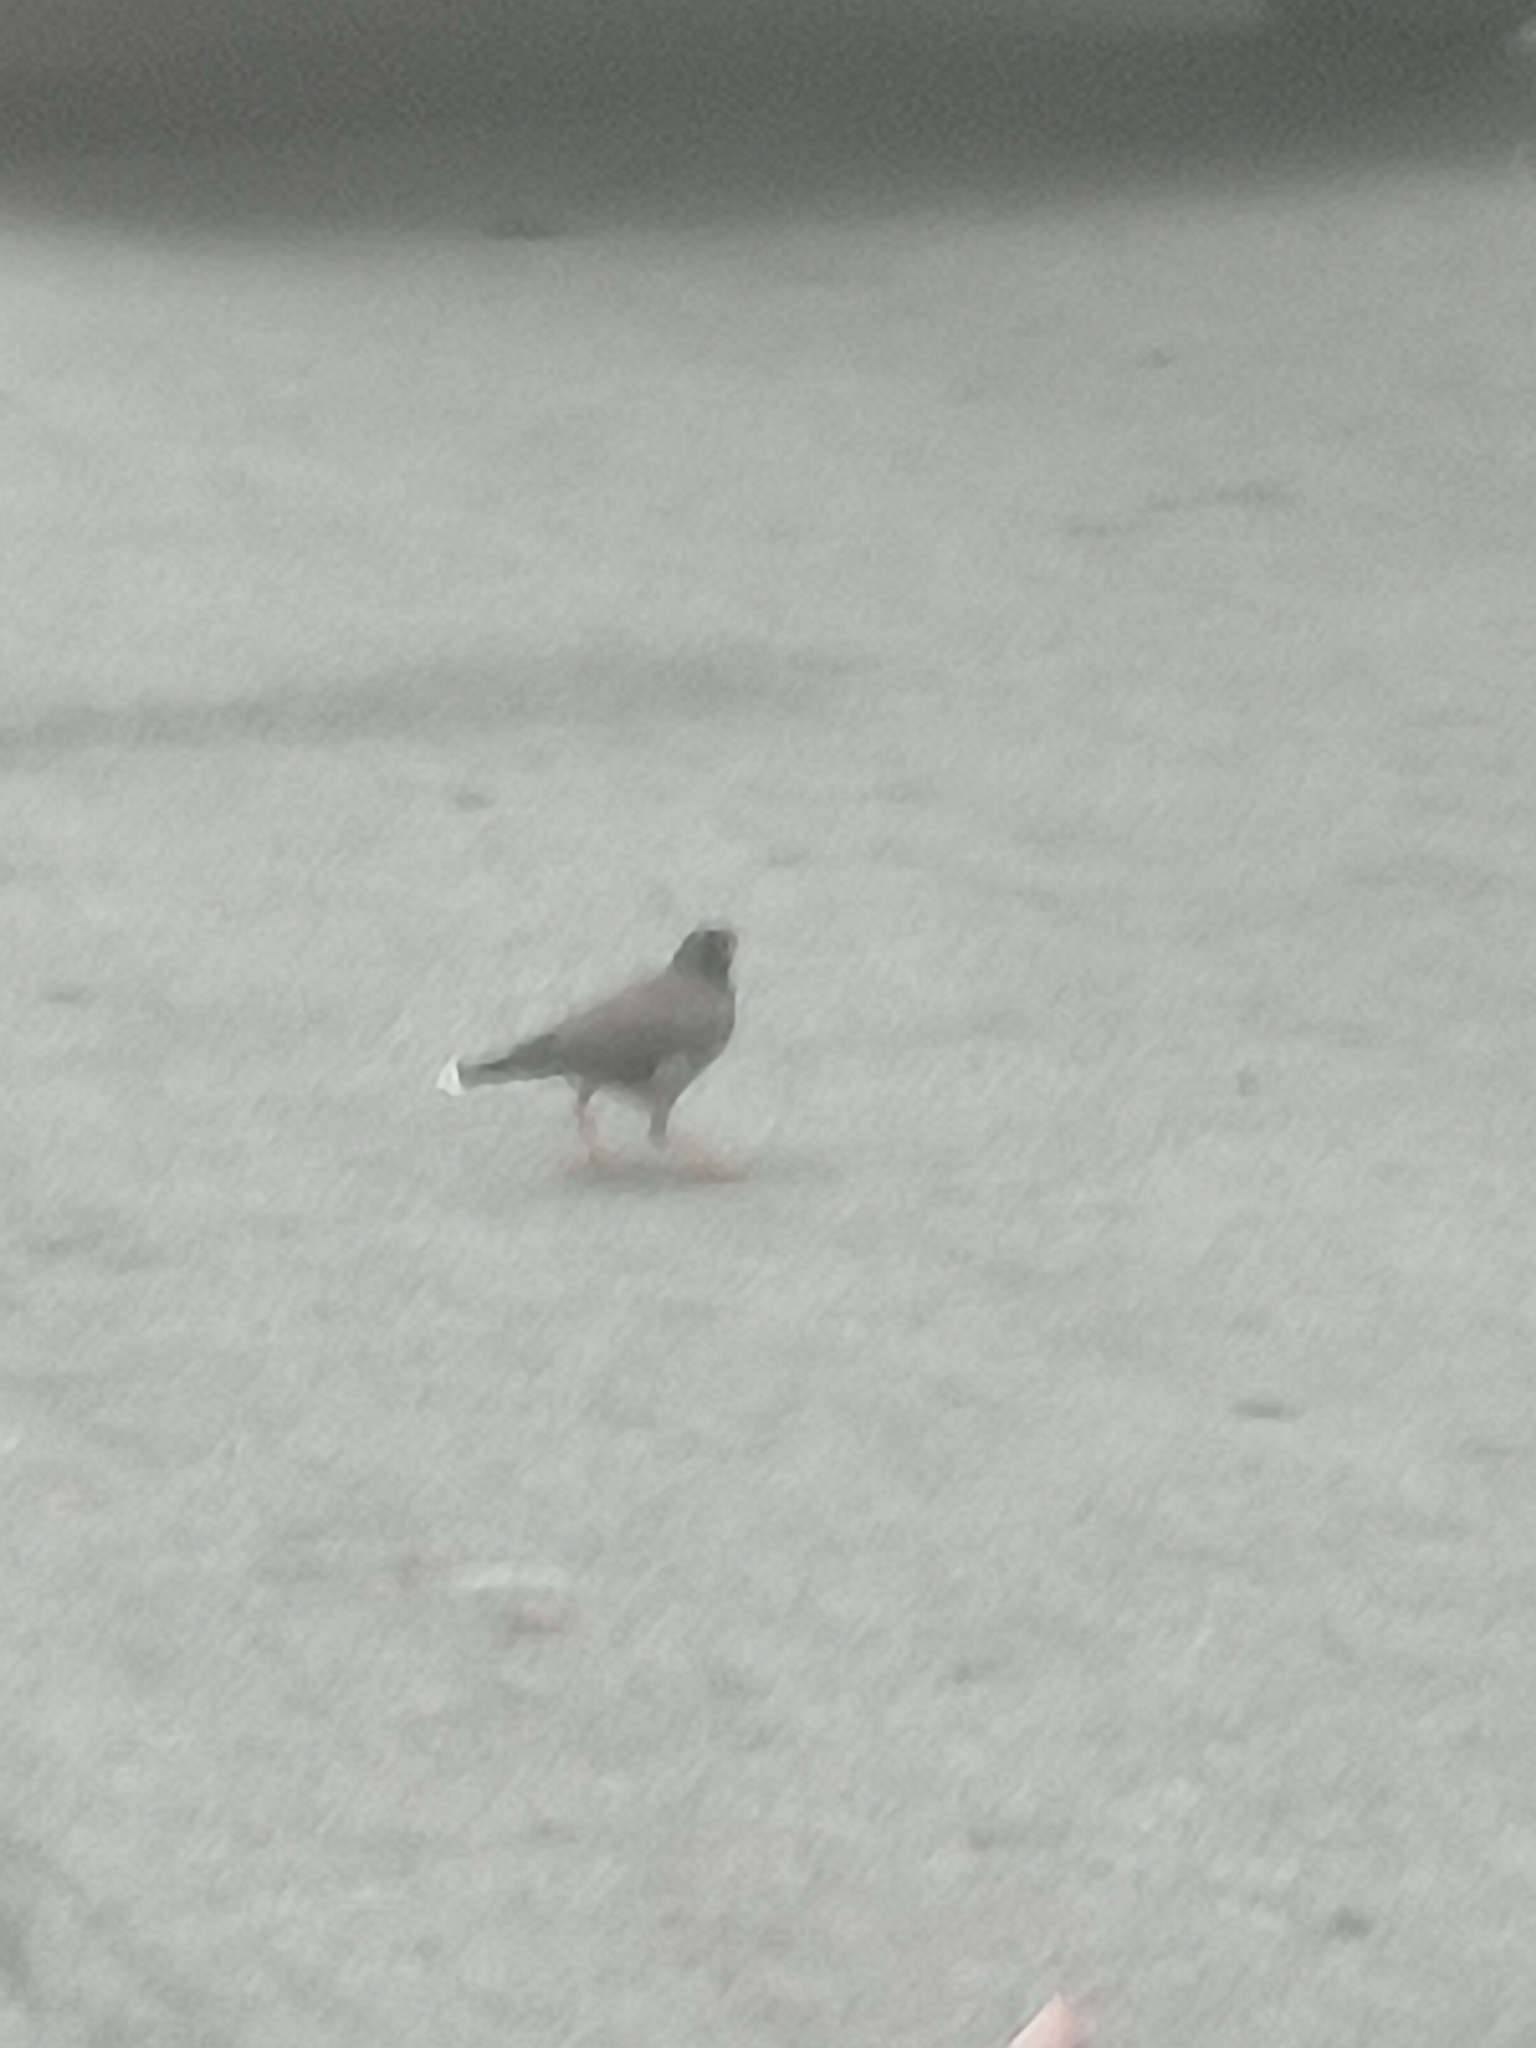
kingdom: Animalia
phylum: Chordata
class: Aves
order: Passeriformes
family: Sturnidae
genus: Acridotheres
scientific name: Acridotheres tristis
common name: Common myna
